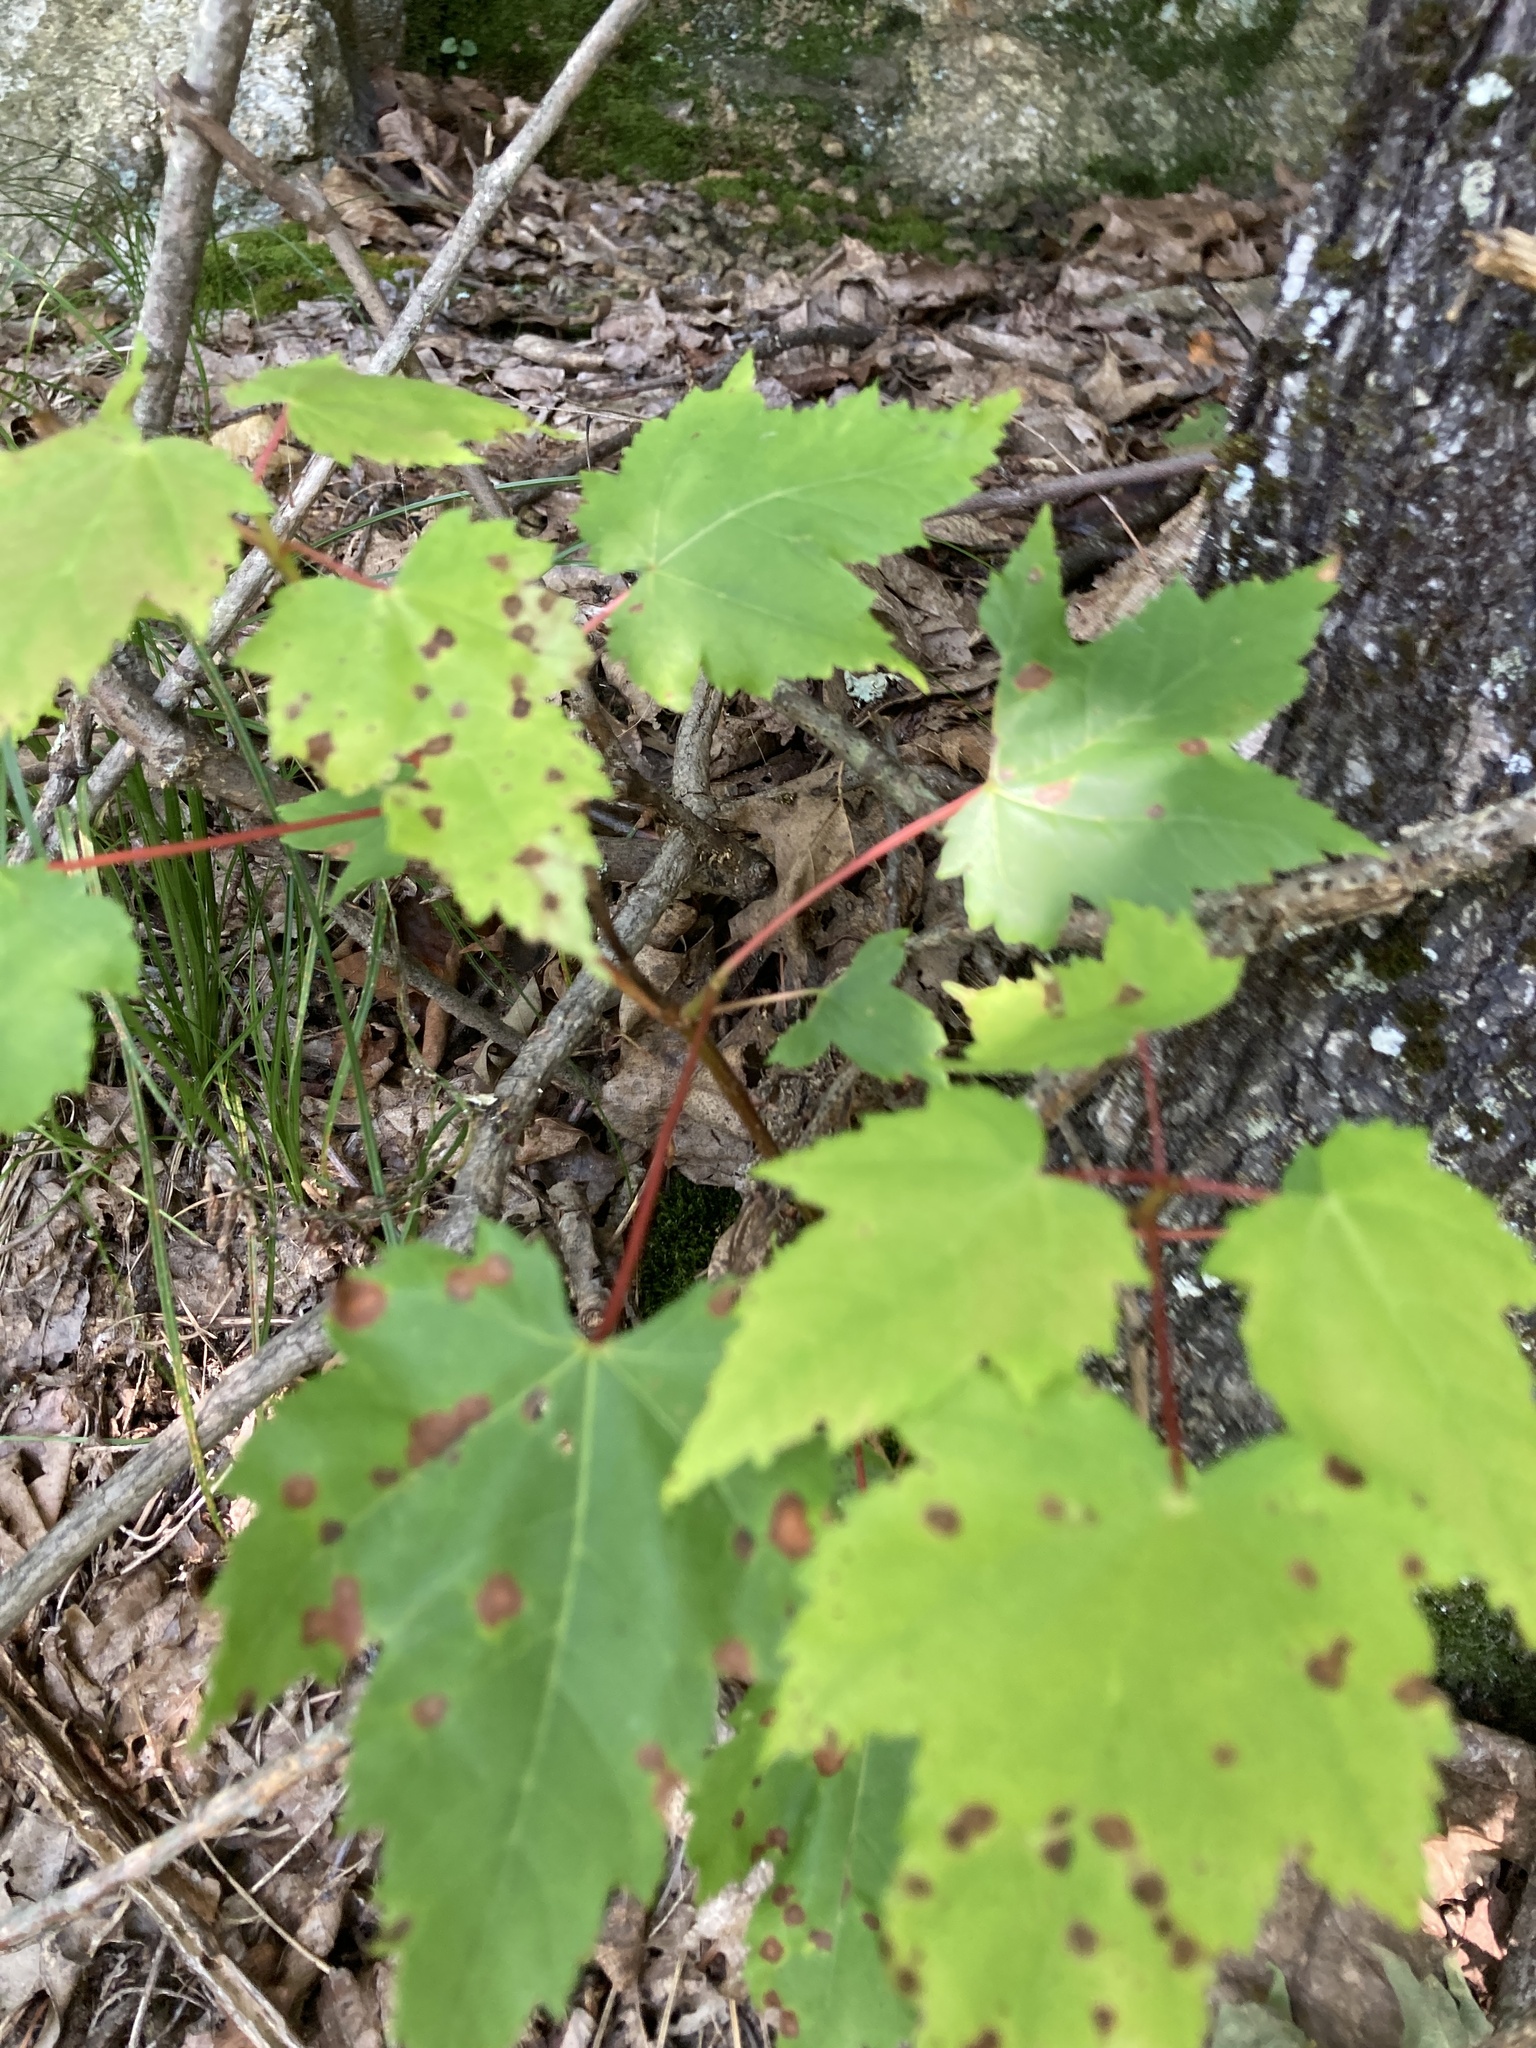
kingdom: Plantae
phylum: Tracheophyta
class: Magnoliopsida
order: Sapindales
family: Sapindaceae
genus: Acer
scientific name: Acer rubrum
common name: Red maple
